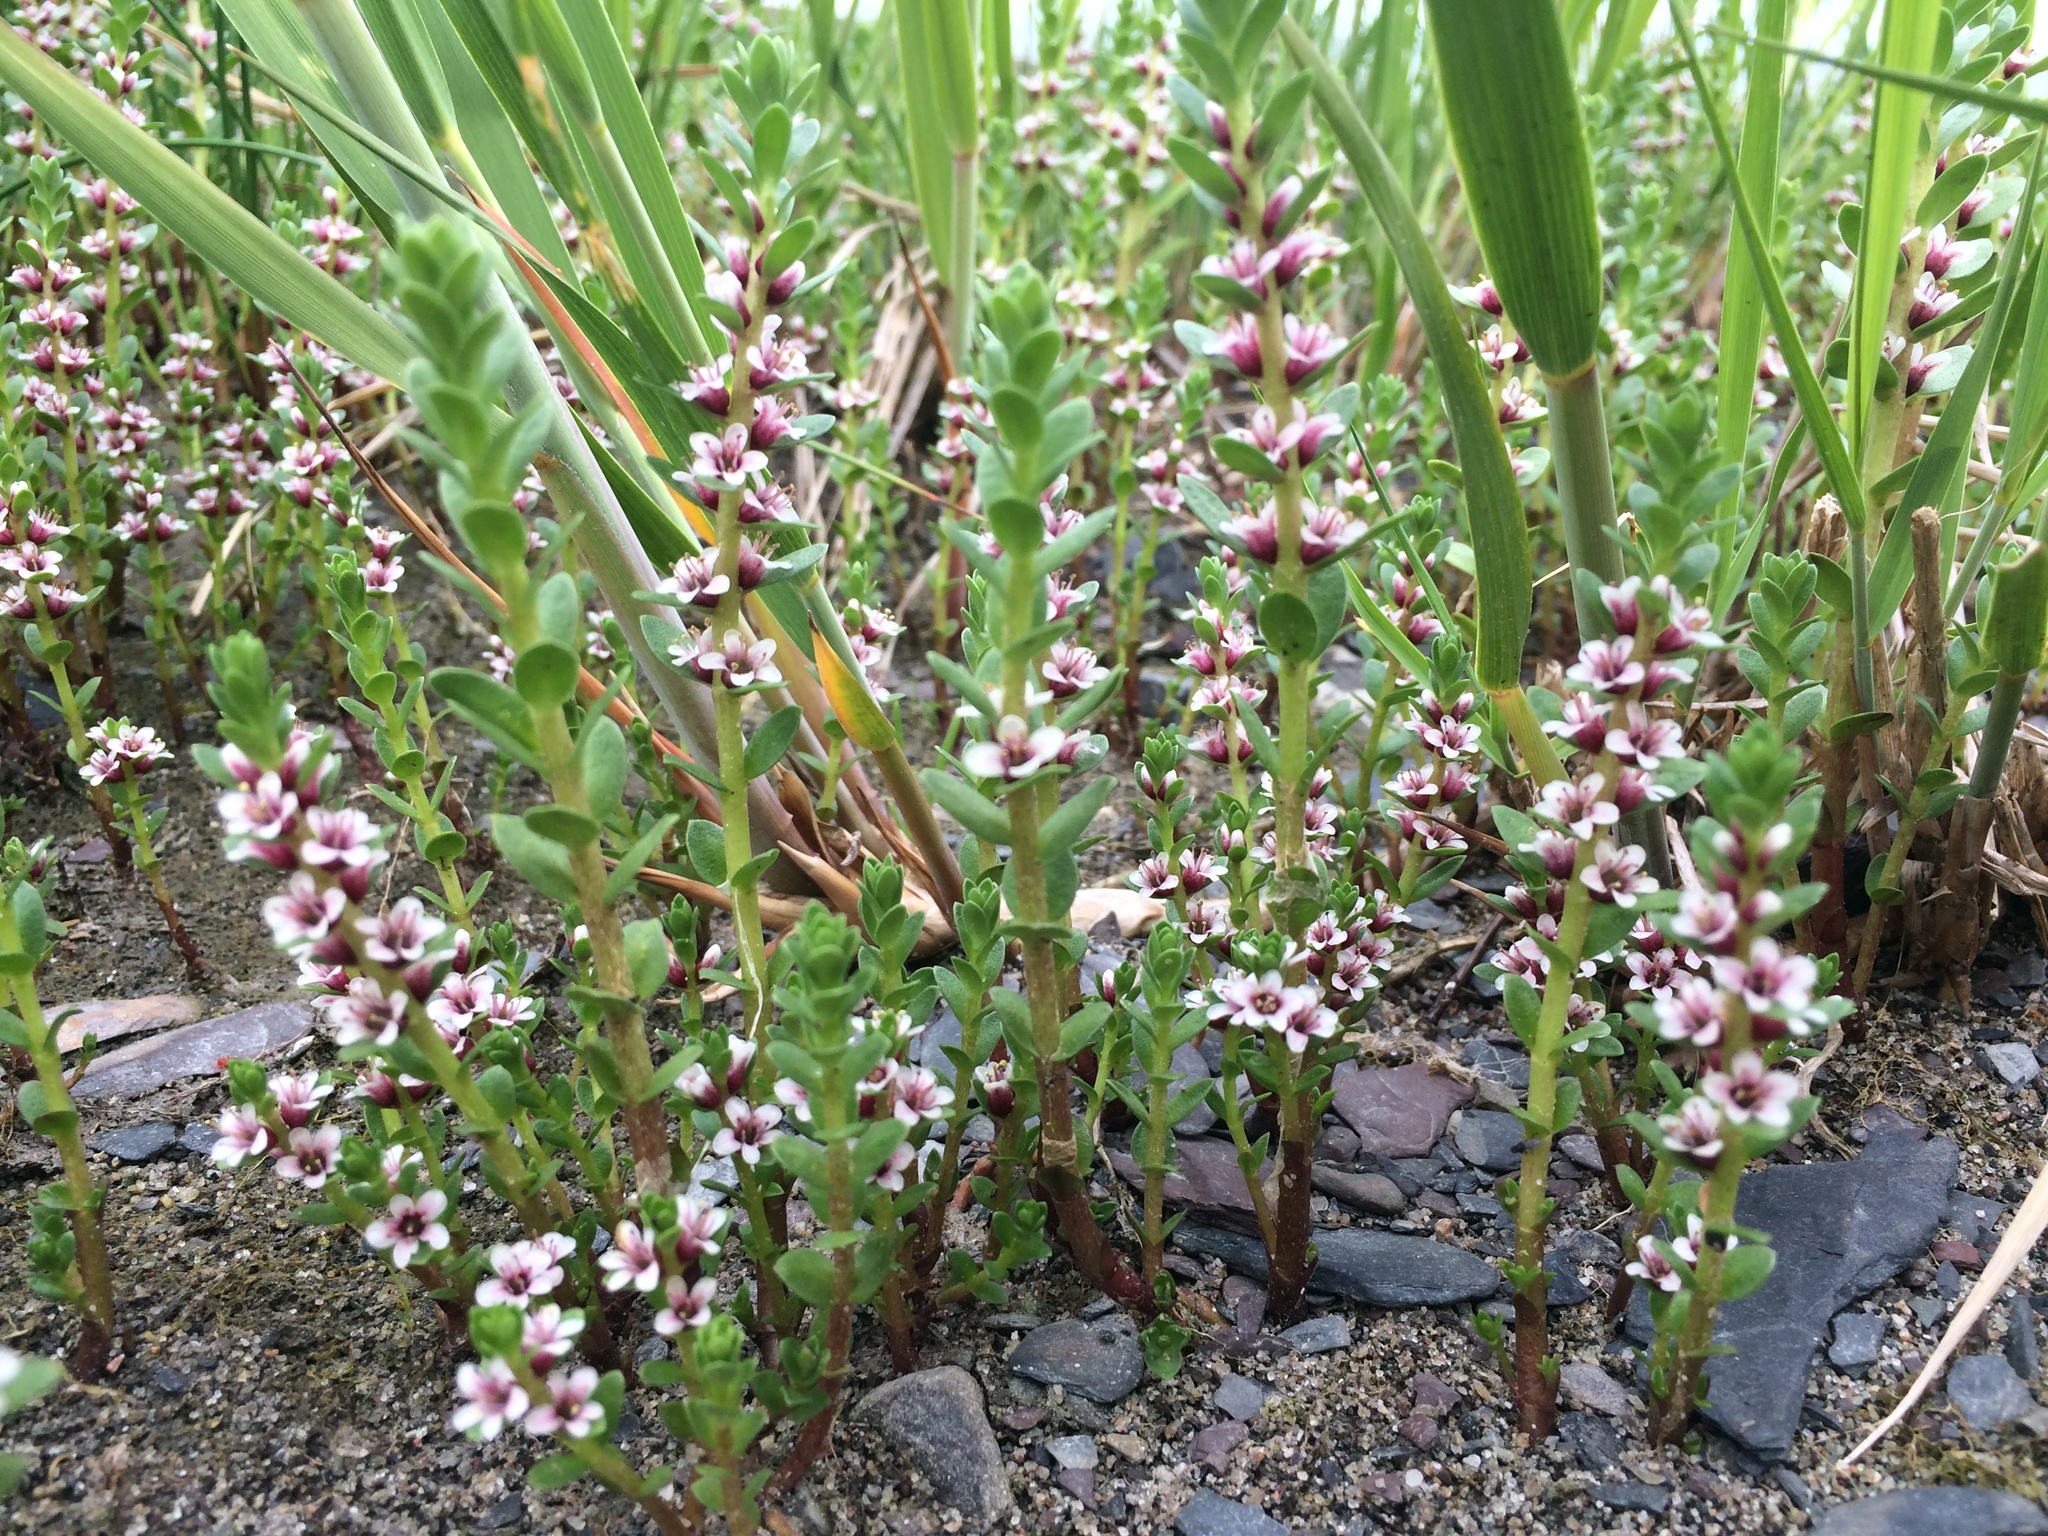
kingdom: Plantae
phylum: Tracheophyta
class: Magnoliopsida
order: Ericales
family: Primulaceae
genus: Lysimachia
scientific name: Lysimachia maritima
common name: Sea milkwort
